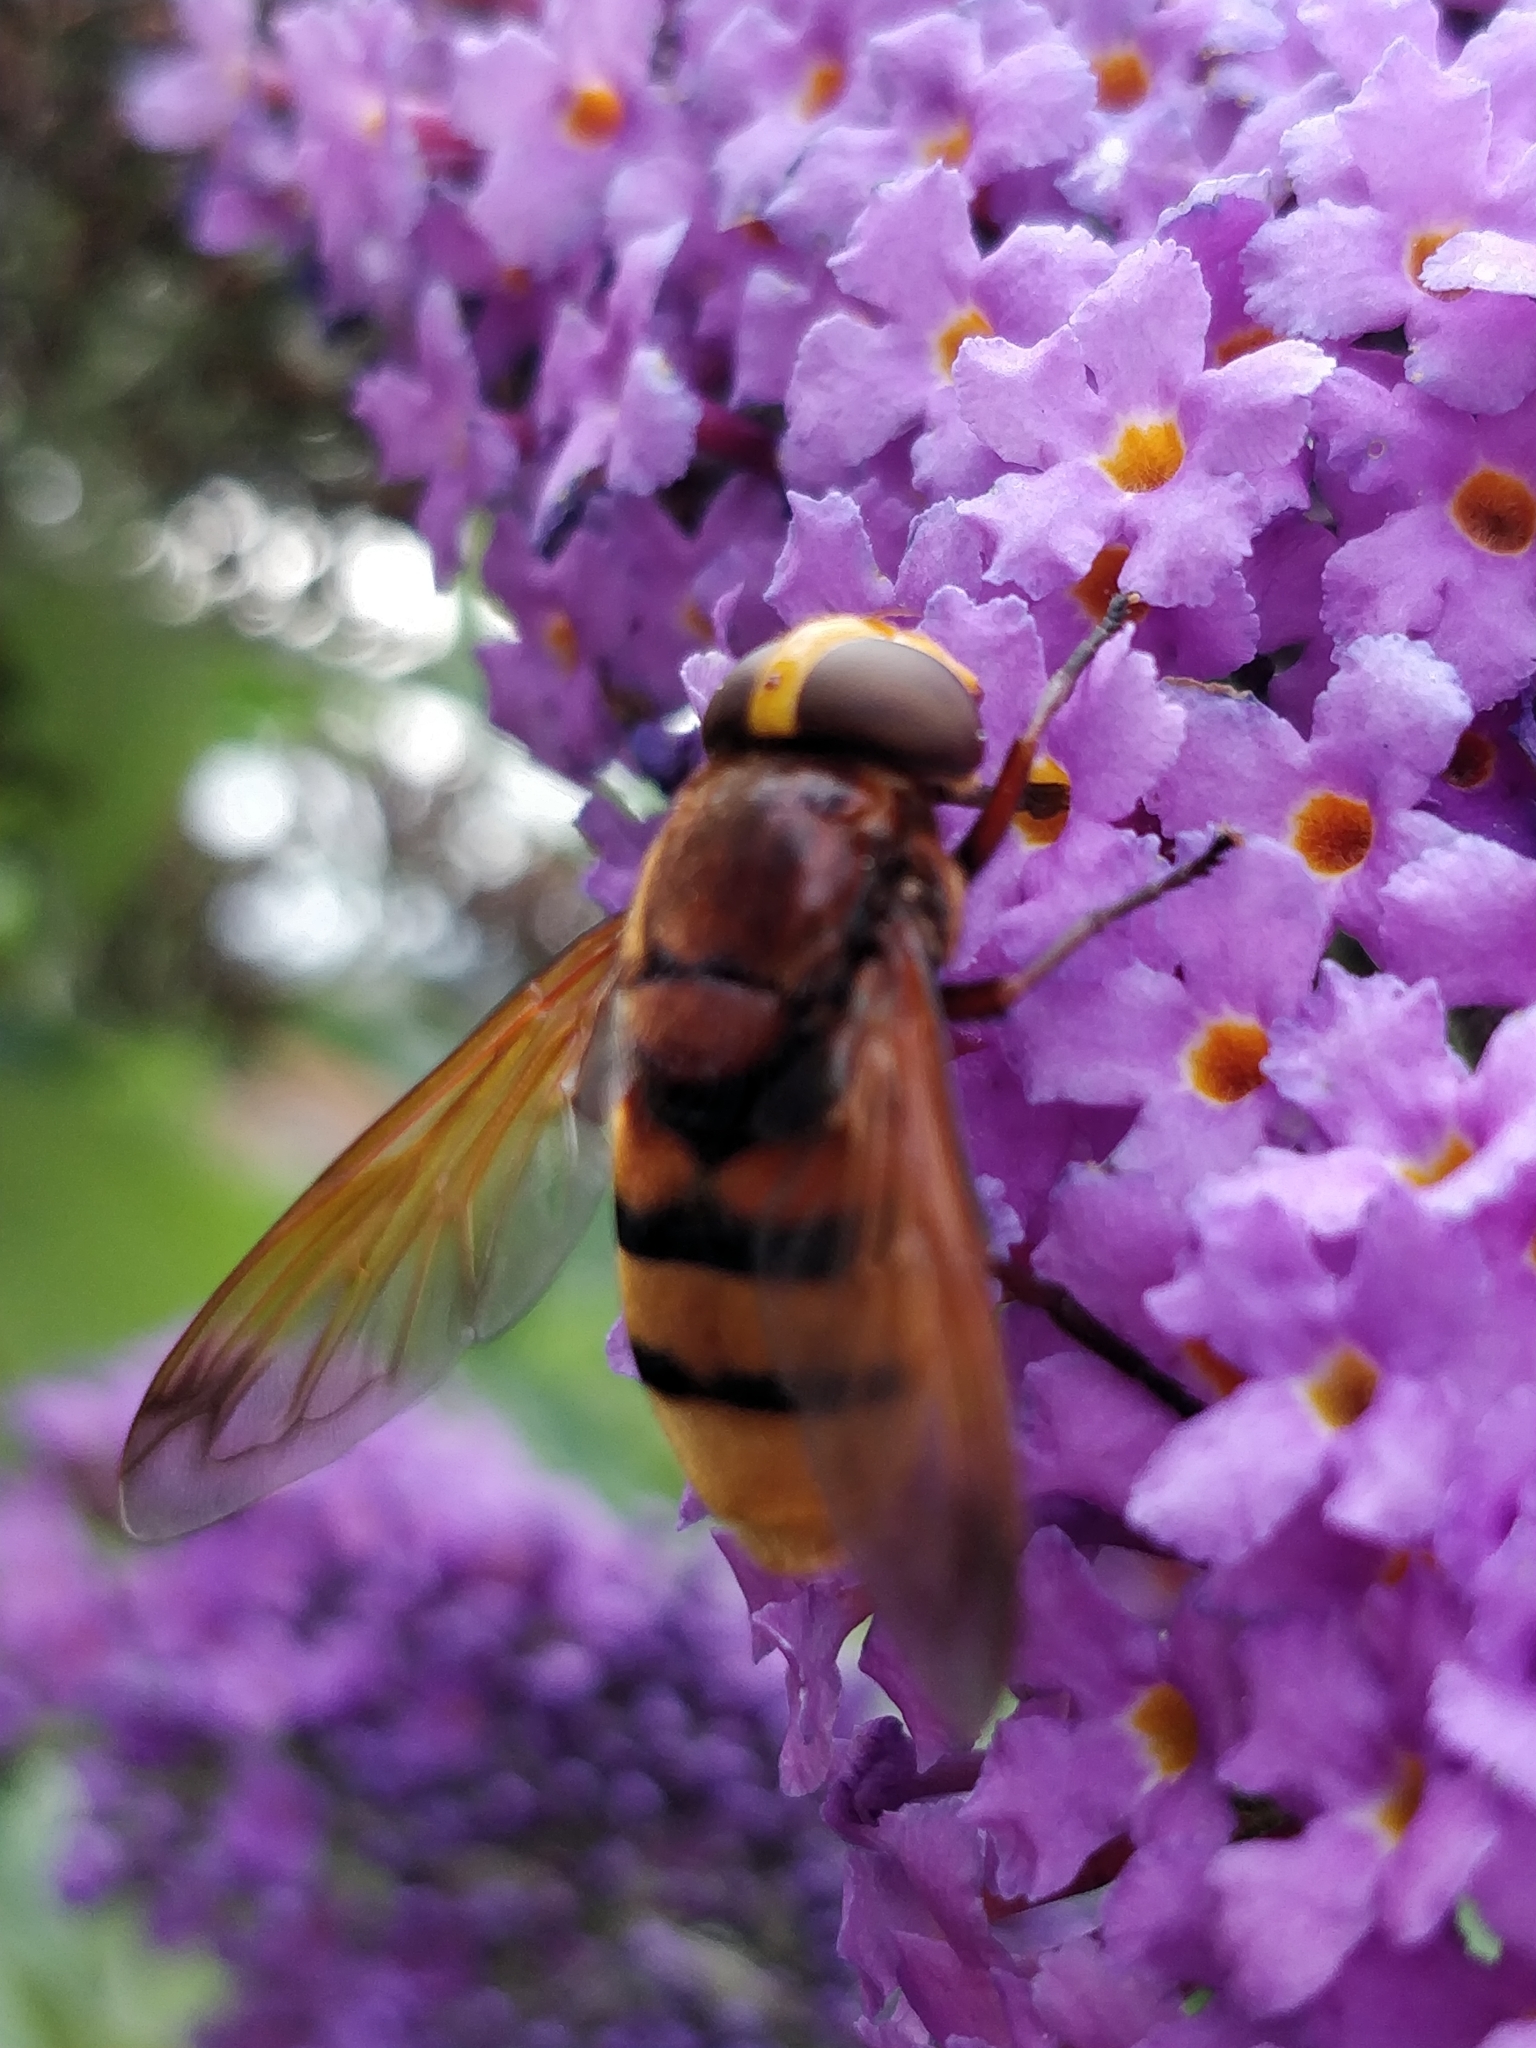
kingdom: Animalia
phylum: Arthropoda
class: Insecta
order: Diptera
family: Syrphidae
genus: Volucella
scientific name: Volucella zonaria
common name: Hornet hoverfly
